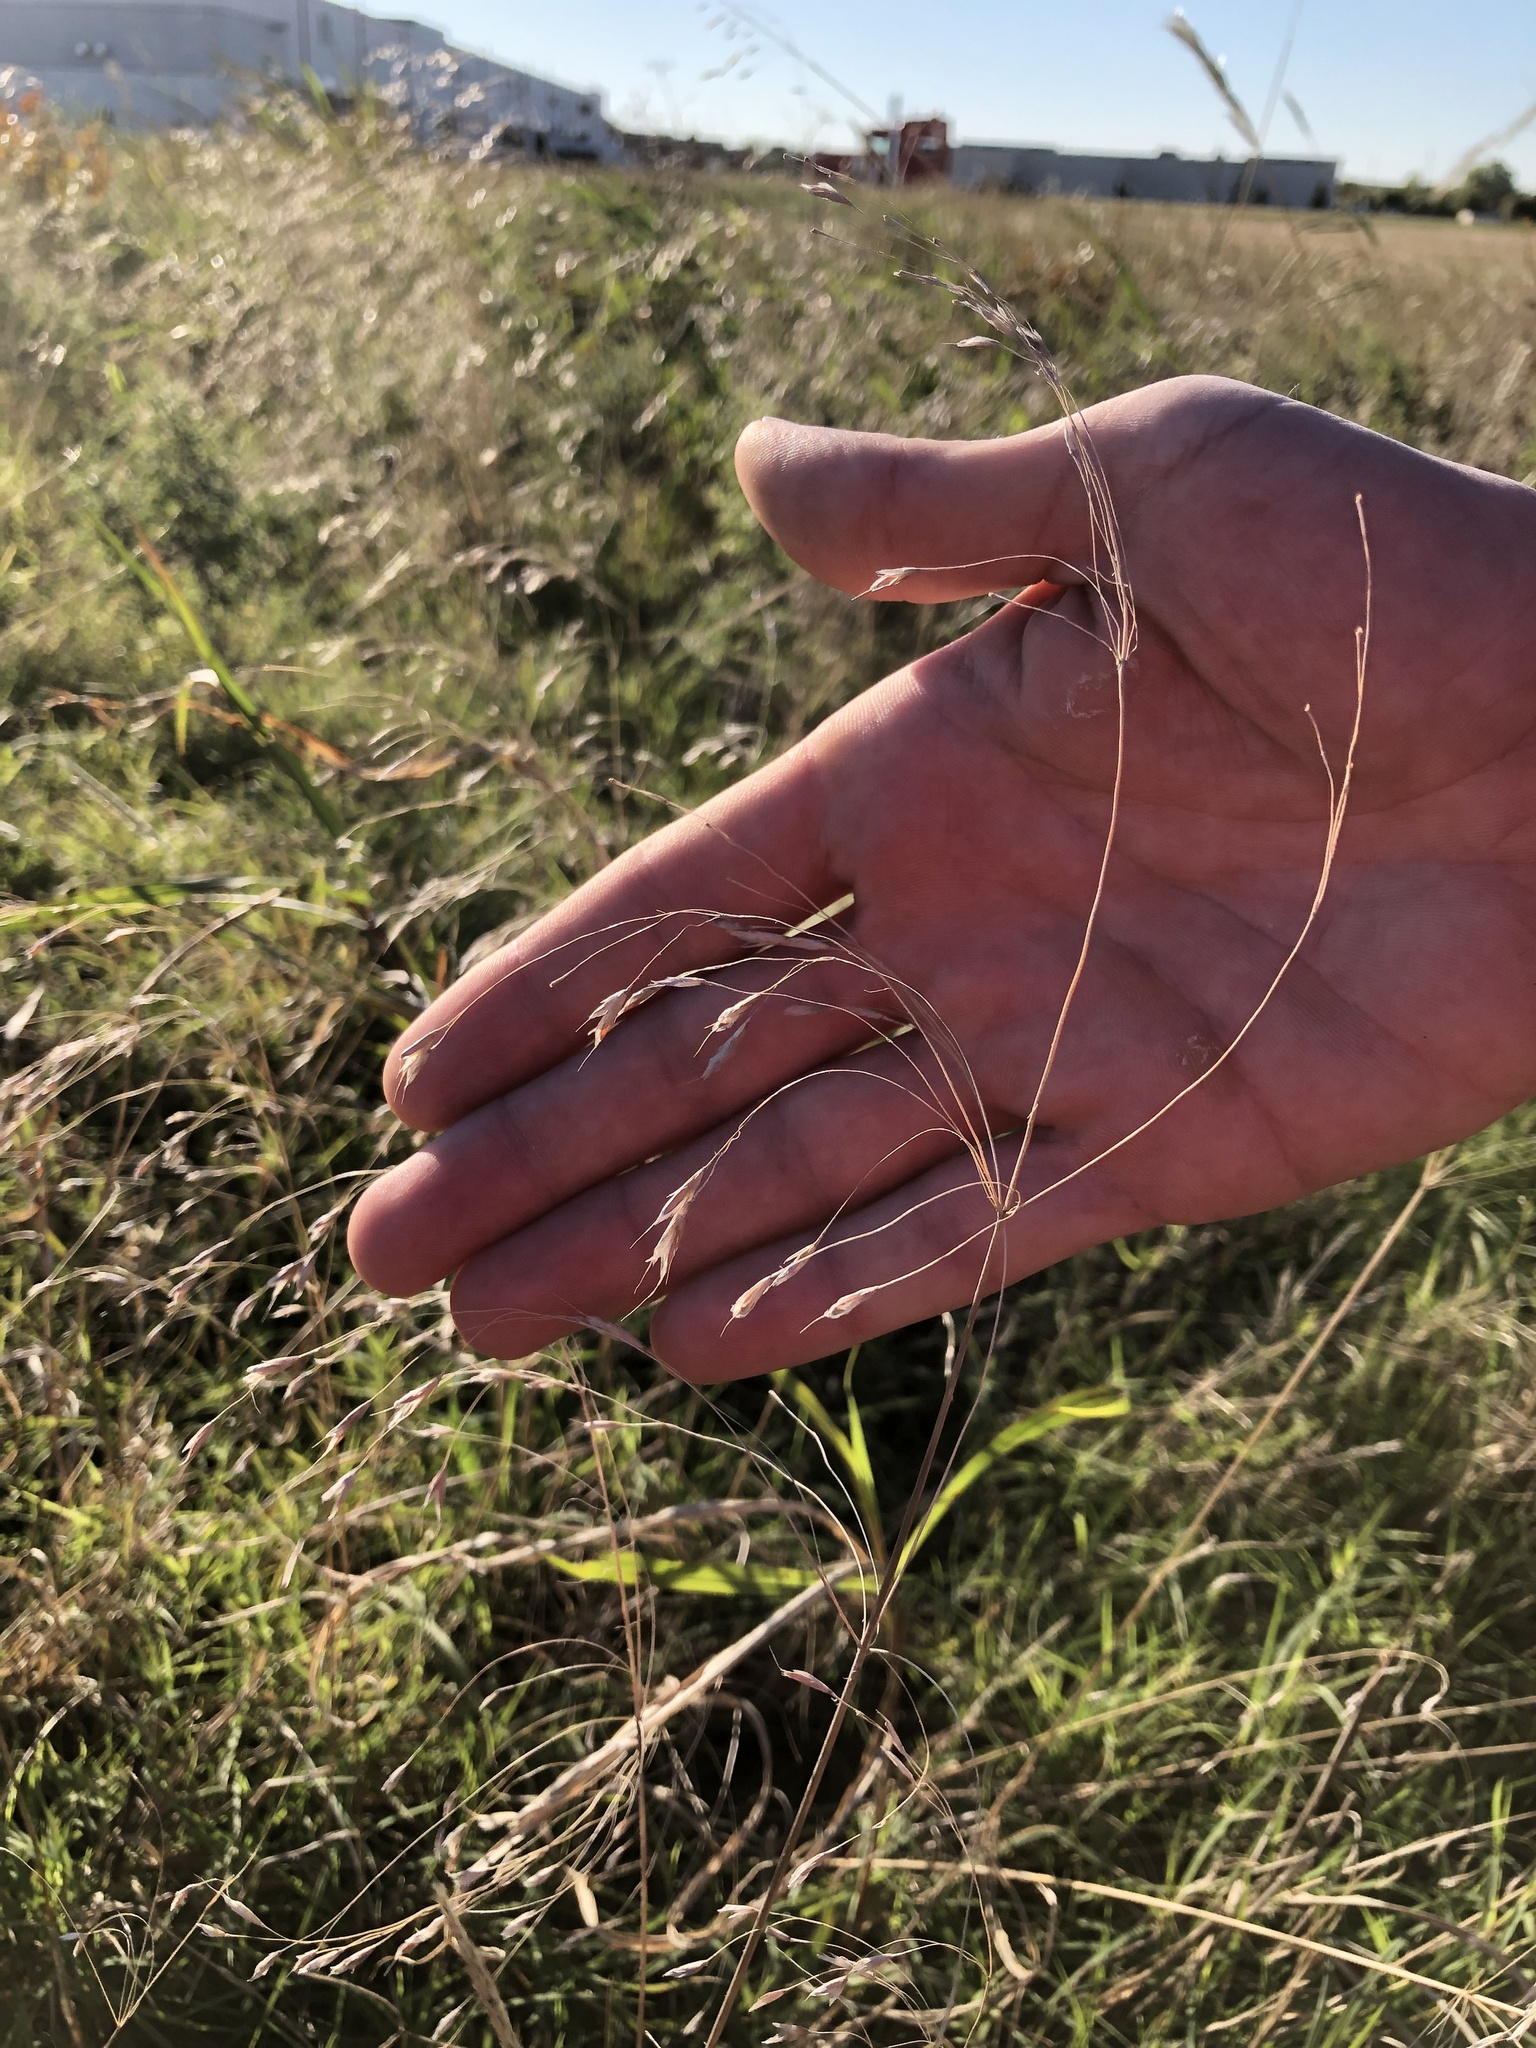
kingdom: Plantae
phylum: Tracheophyta
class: Liliopsida
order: Poales
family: Poaceae
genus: Bromus
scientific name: Bromus japonicus
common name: Japanese brome
